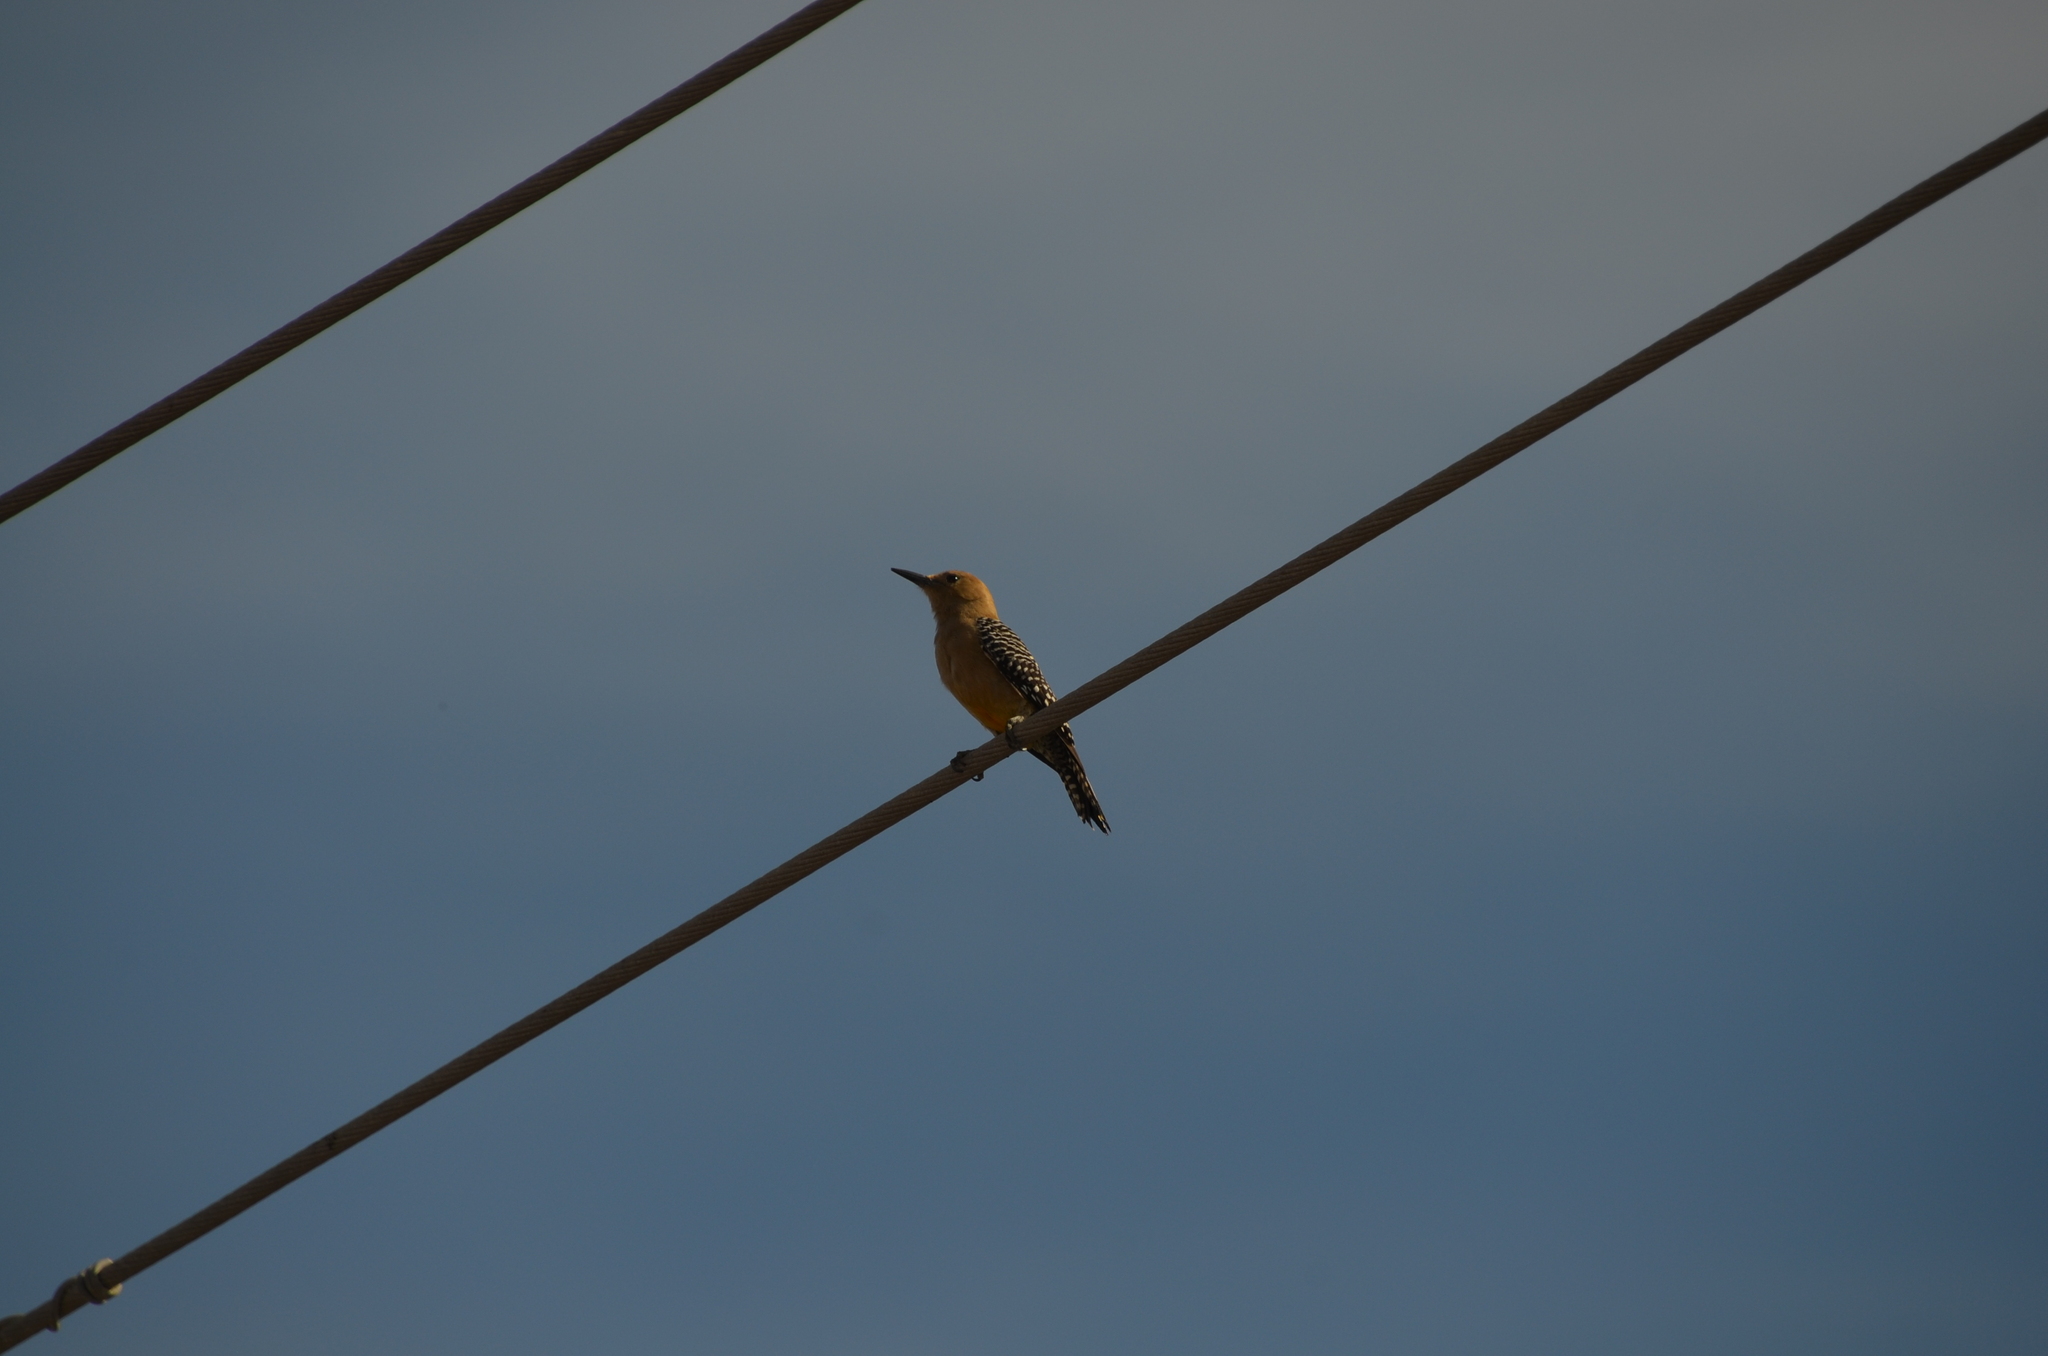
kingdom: Animalia
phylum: Chordata
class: Aves
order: Piciformes
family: Picidae
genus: Melanerpes
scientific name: Melanerpes uropygialis
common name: Gila woodpecker
